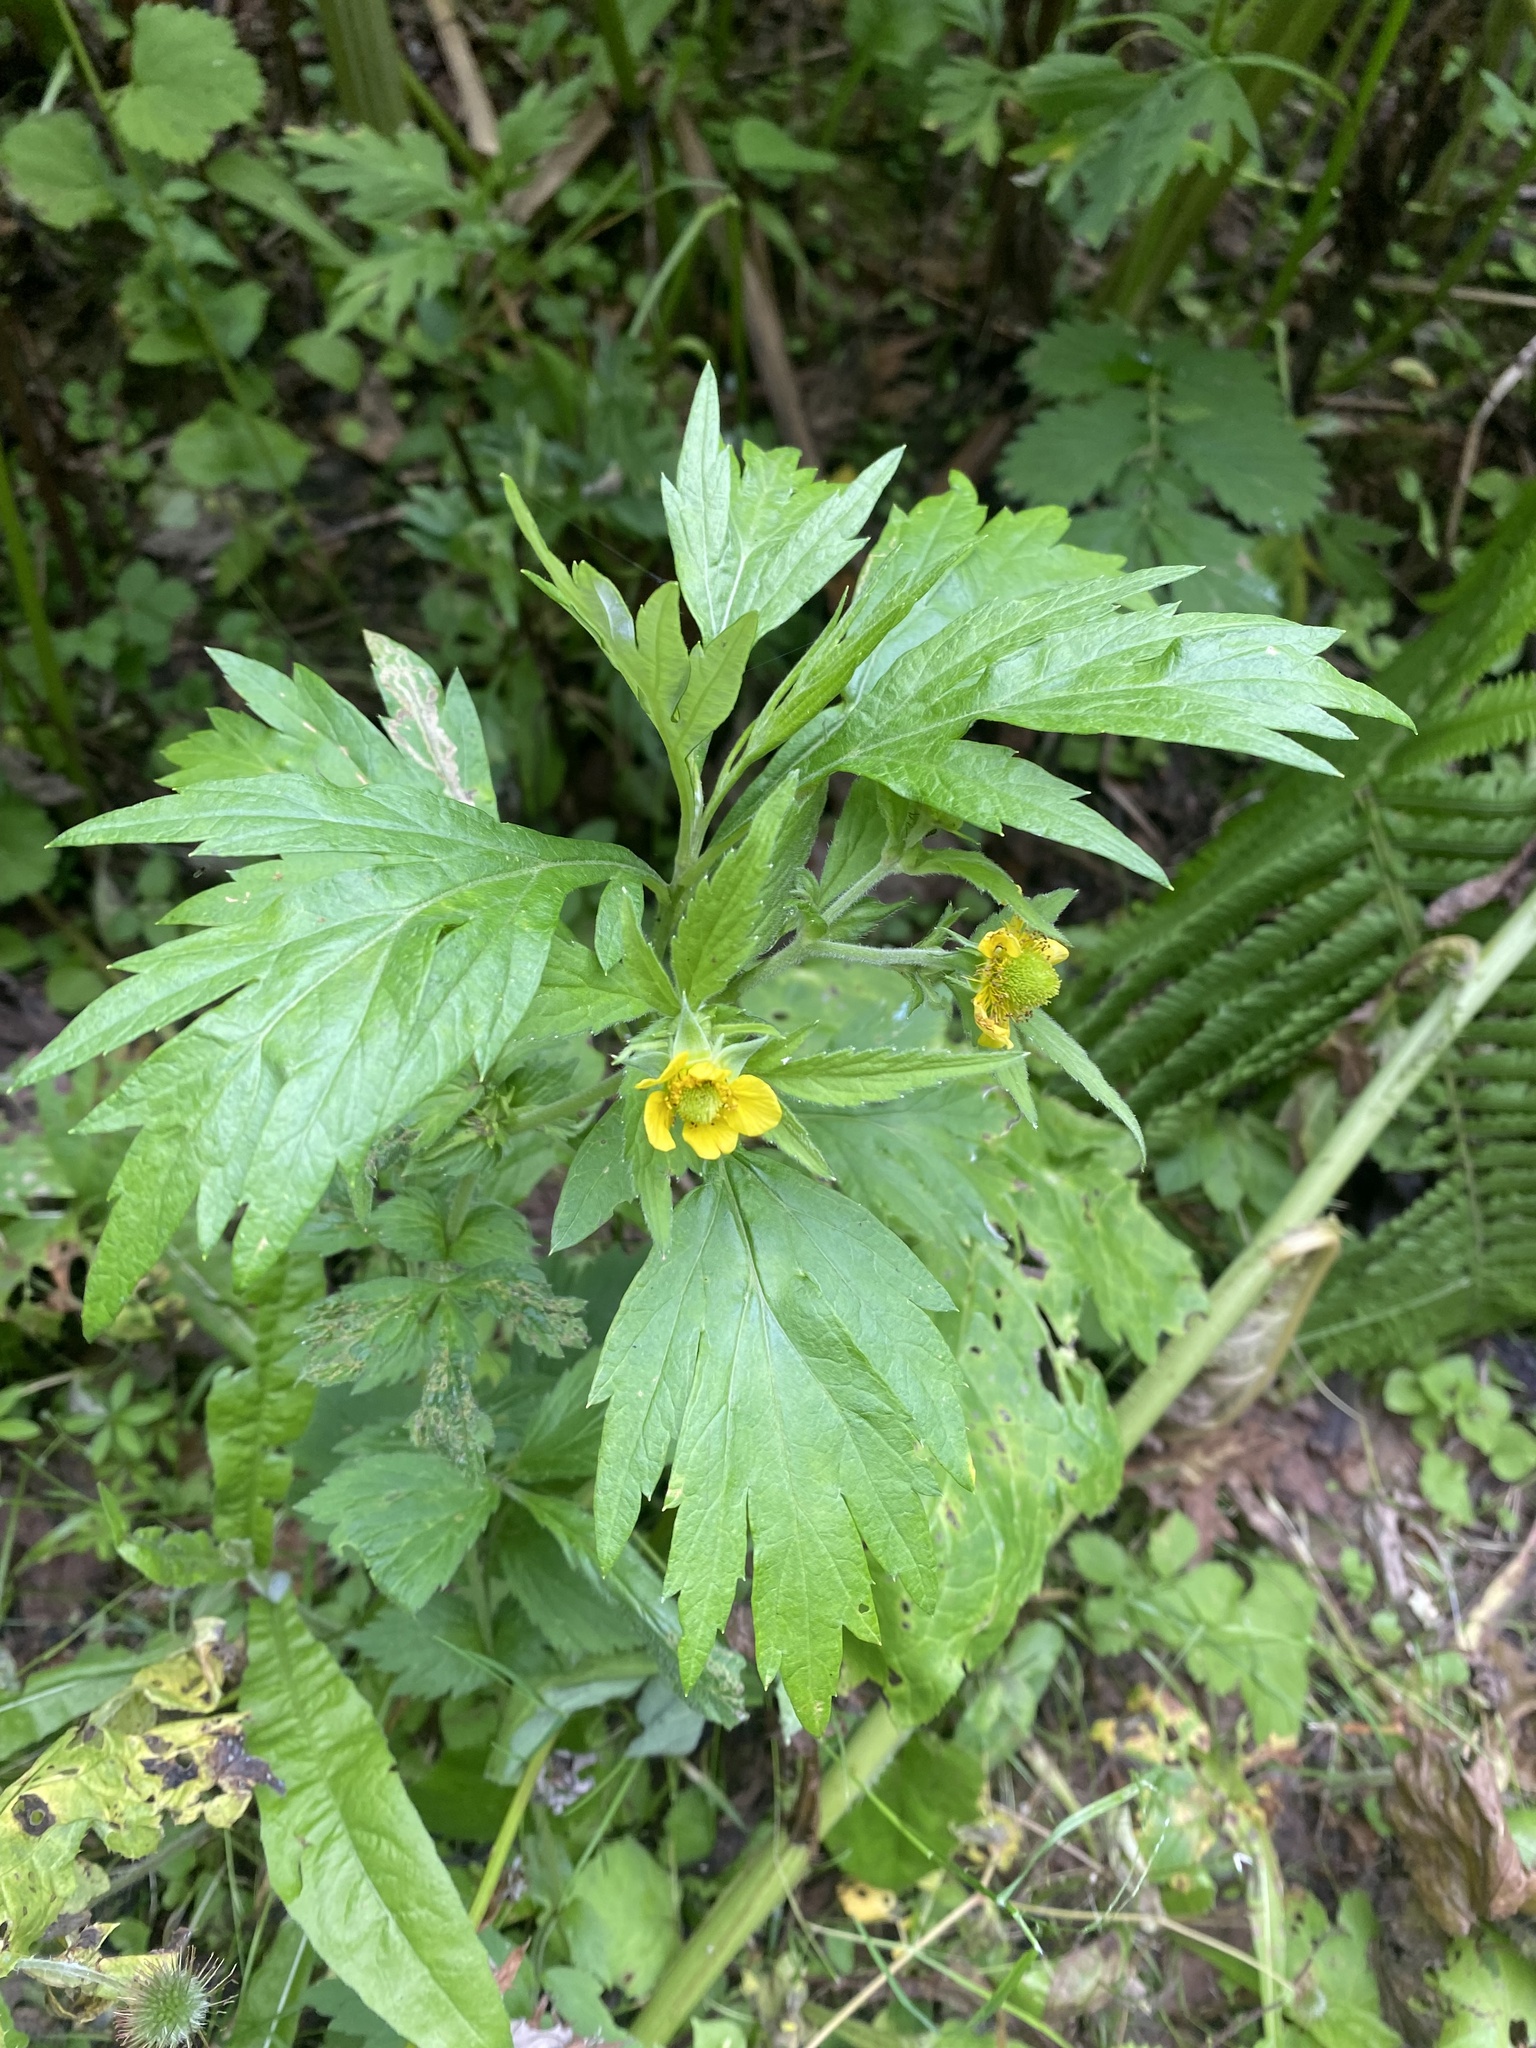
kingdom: Plantae
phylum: Tracheophyta
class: Magnoliopsida
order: Rosales
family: Rosaceae
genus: Geum
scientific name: Geum aleppicum
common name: Yellow avens
